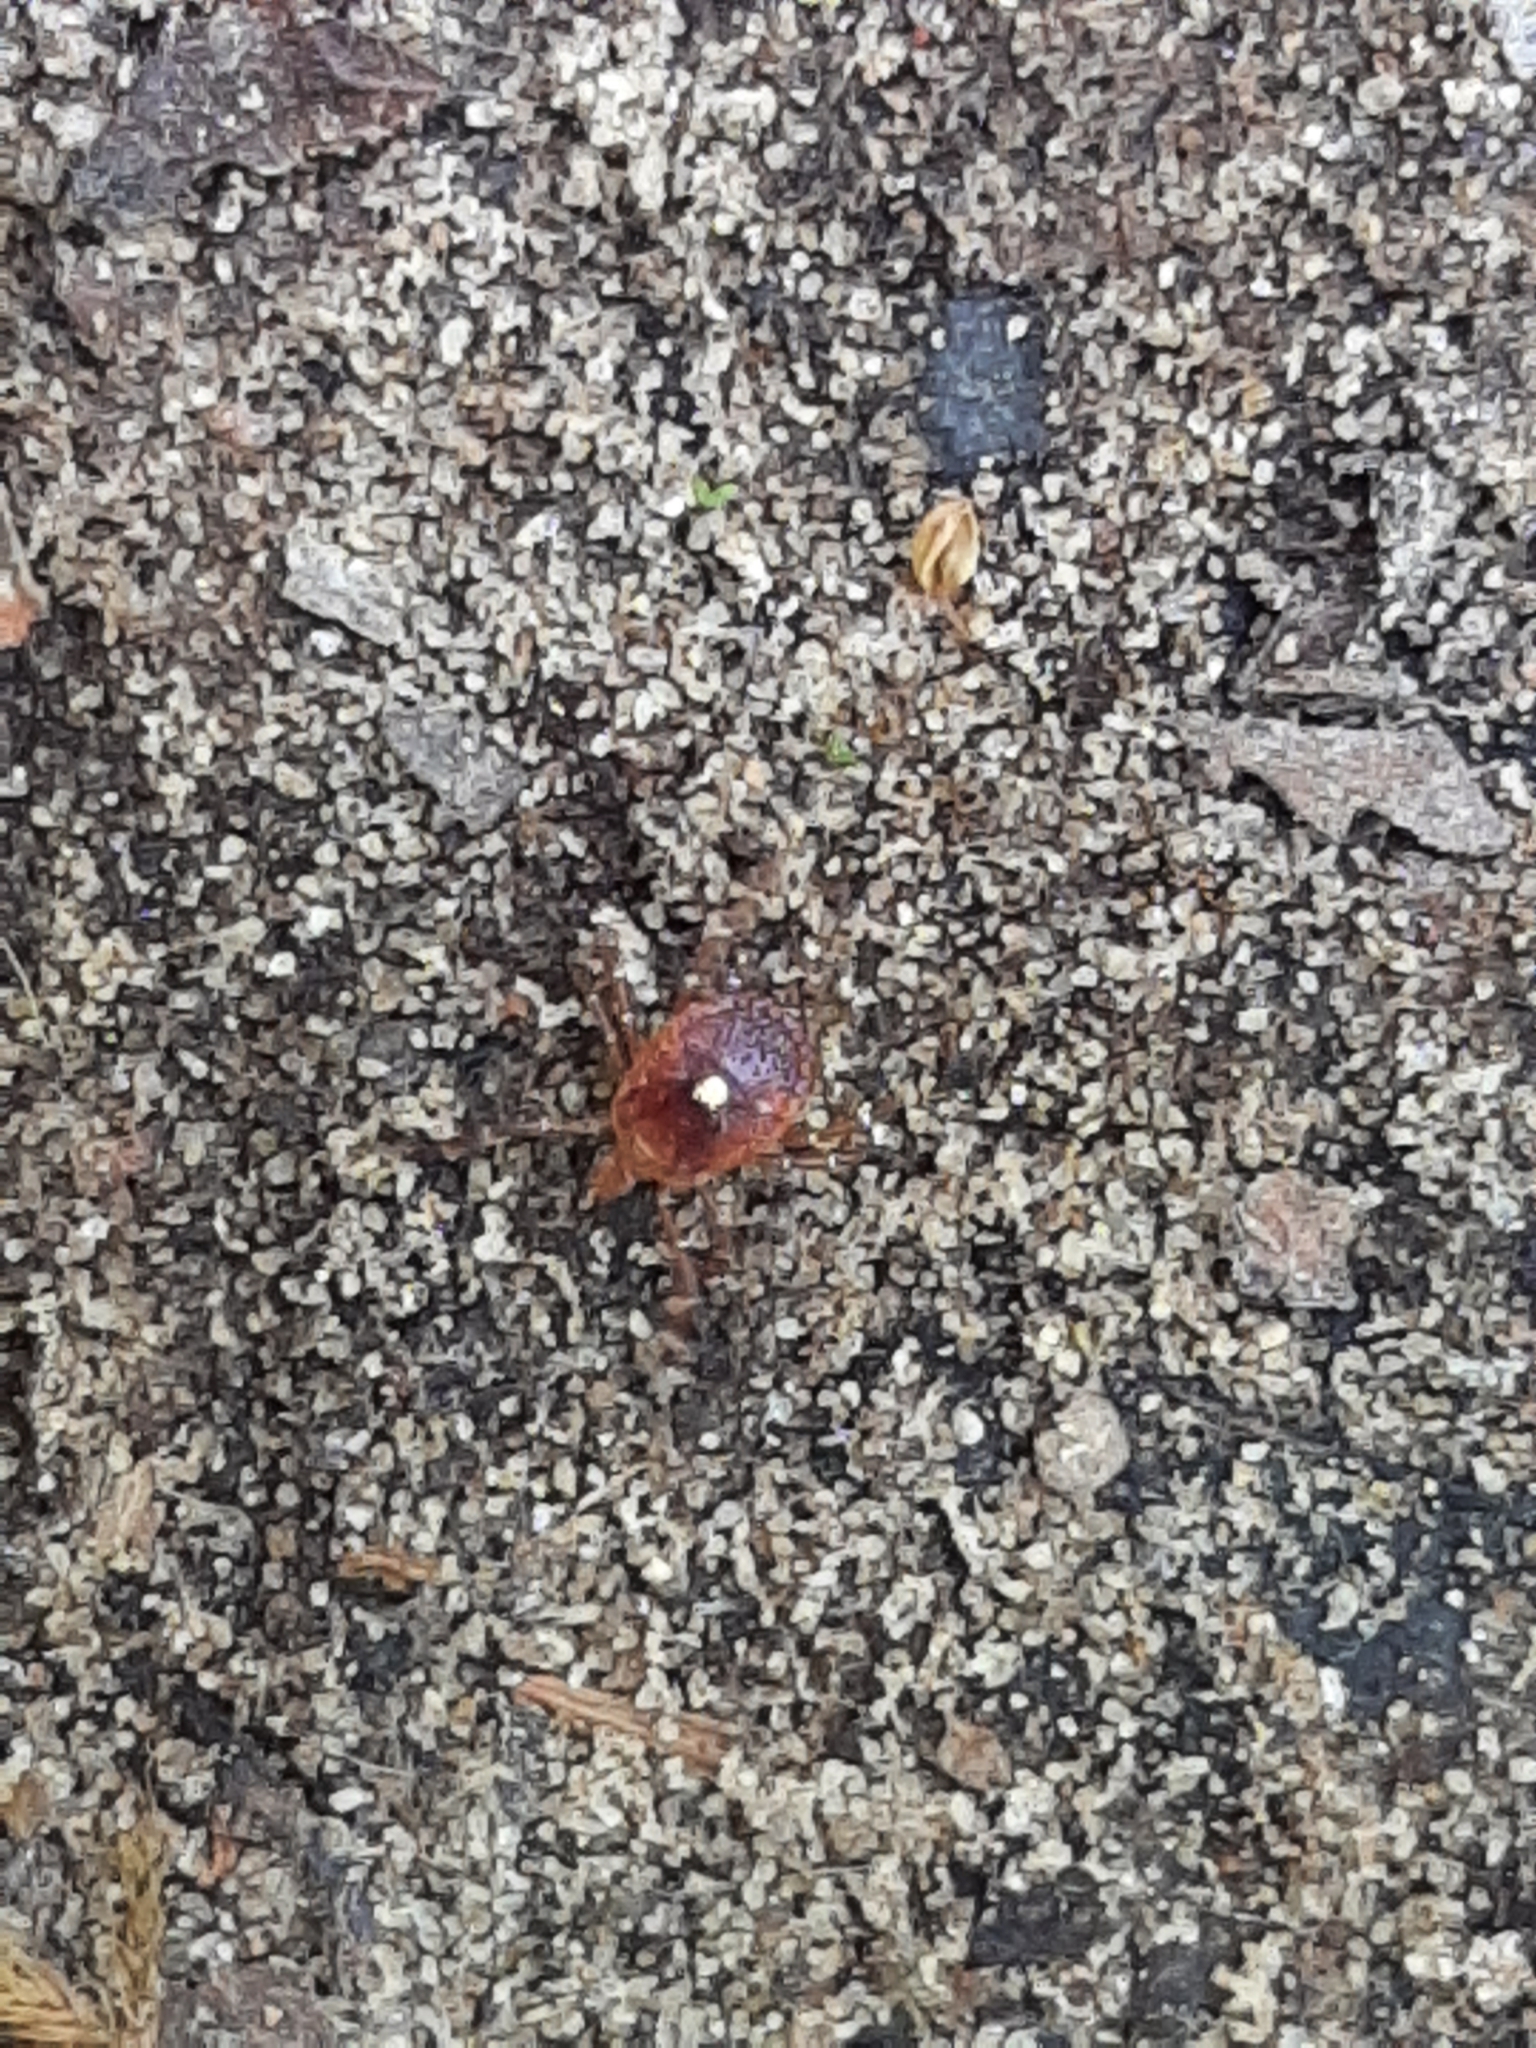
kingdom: Animalia
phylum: Arthropoda
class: Arachnida
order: Ixodida
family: Ixodidae
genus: Amblyomma
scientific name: Amblyomma americanum
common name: Lone star tick
